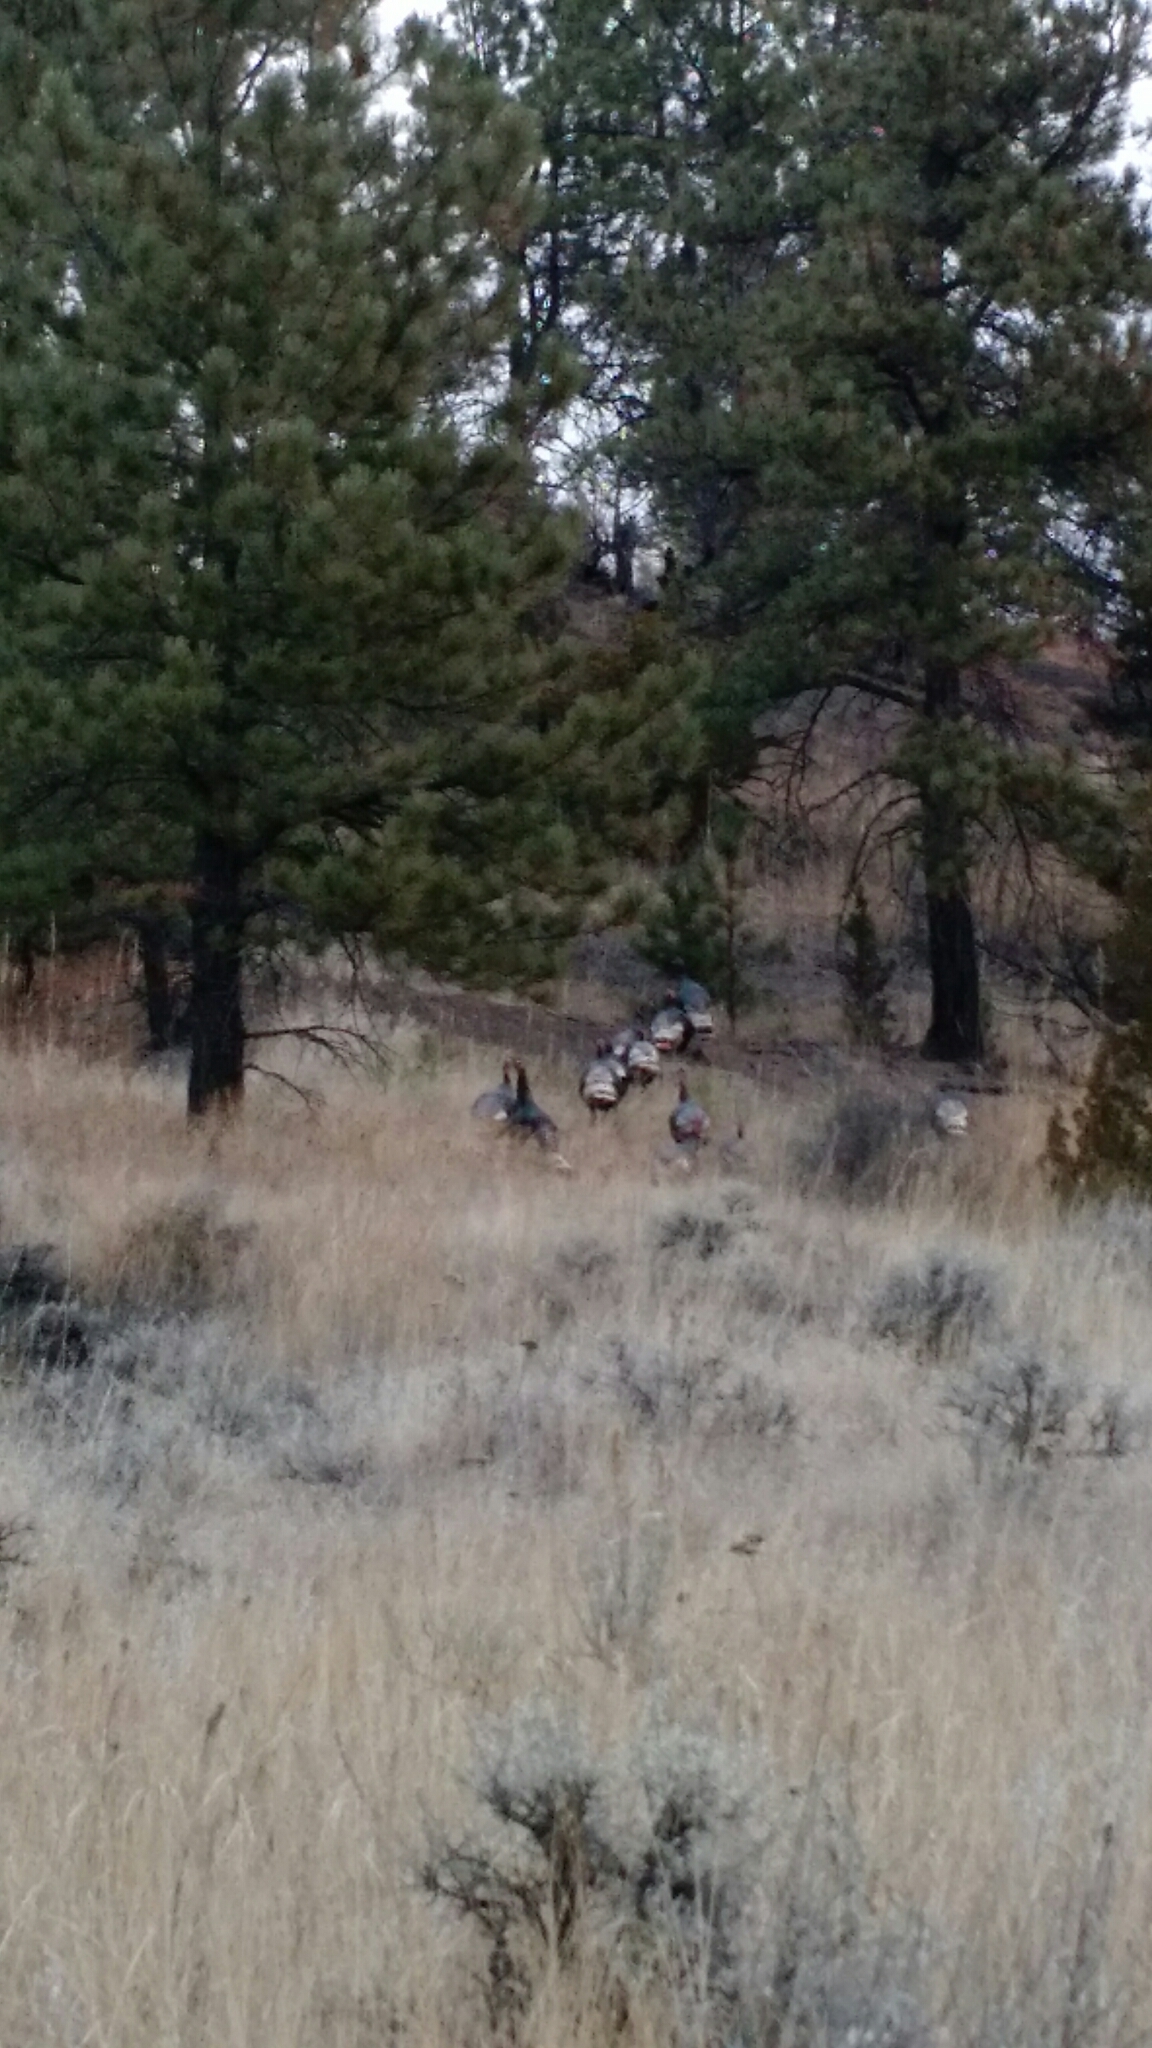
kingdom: Animalia
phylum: Chordata
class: Aves
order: Galliformes
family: Phasianidae
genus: Meleagris
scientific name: Meleagris gallopavo
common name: Wild turkey
